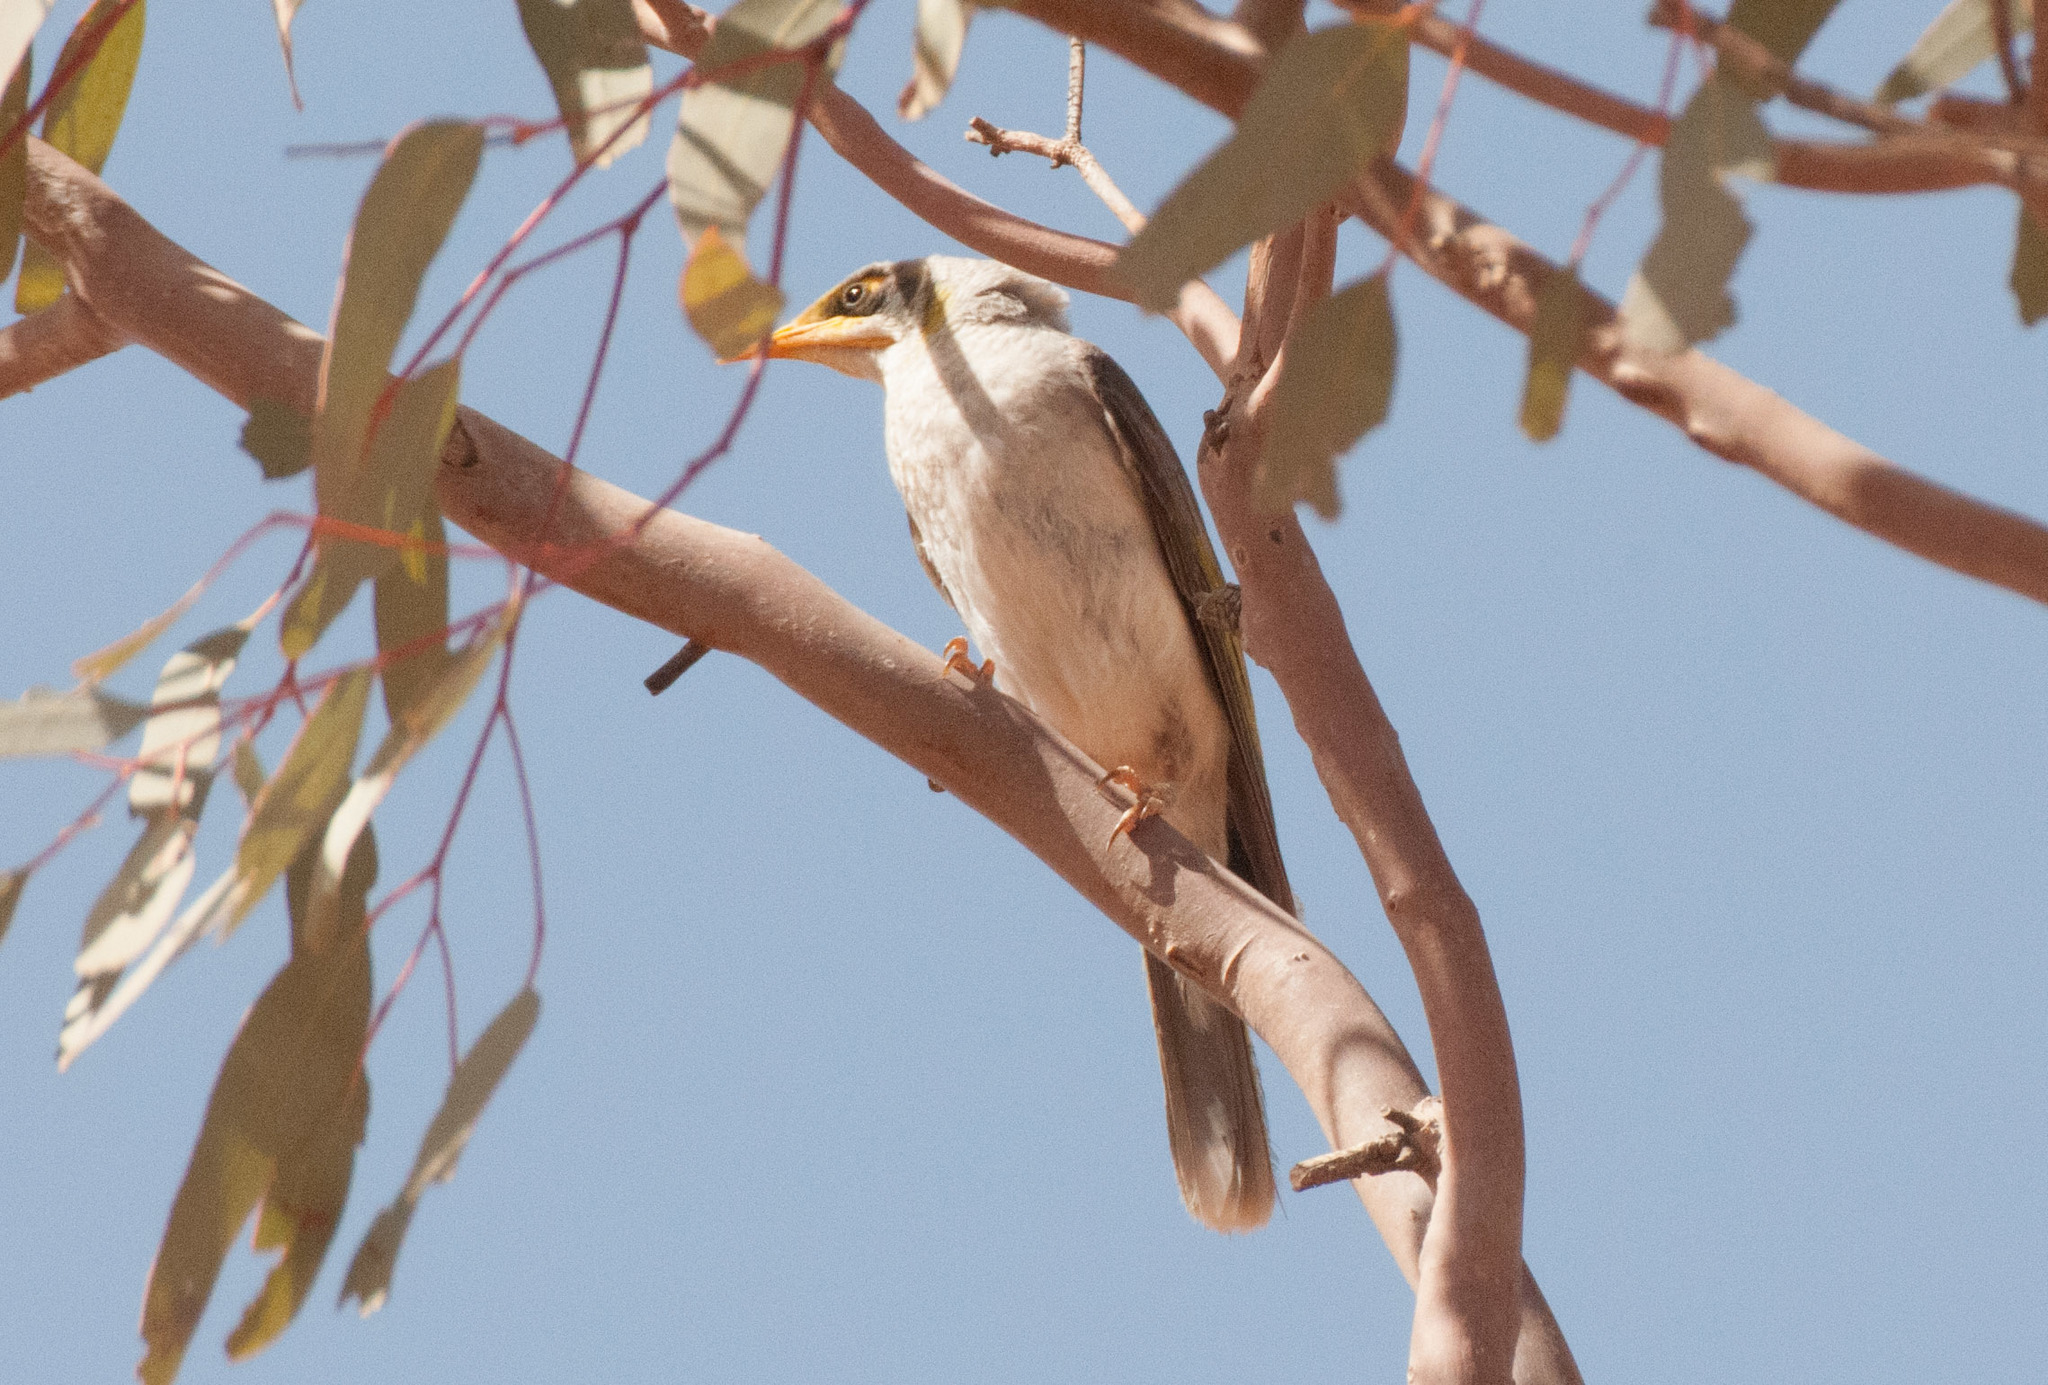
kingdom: Animalia
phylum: Chordata
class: Aves
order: Passeriformes
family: Meliphagidae
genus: Manorina
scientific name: Manorina flavigula
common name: Yellow-throated miner
